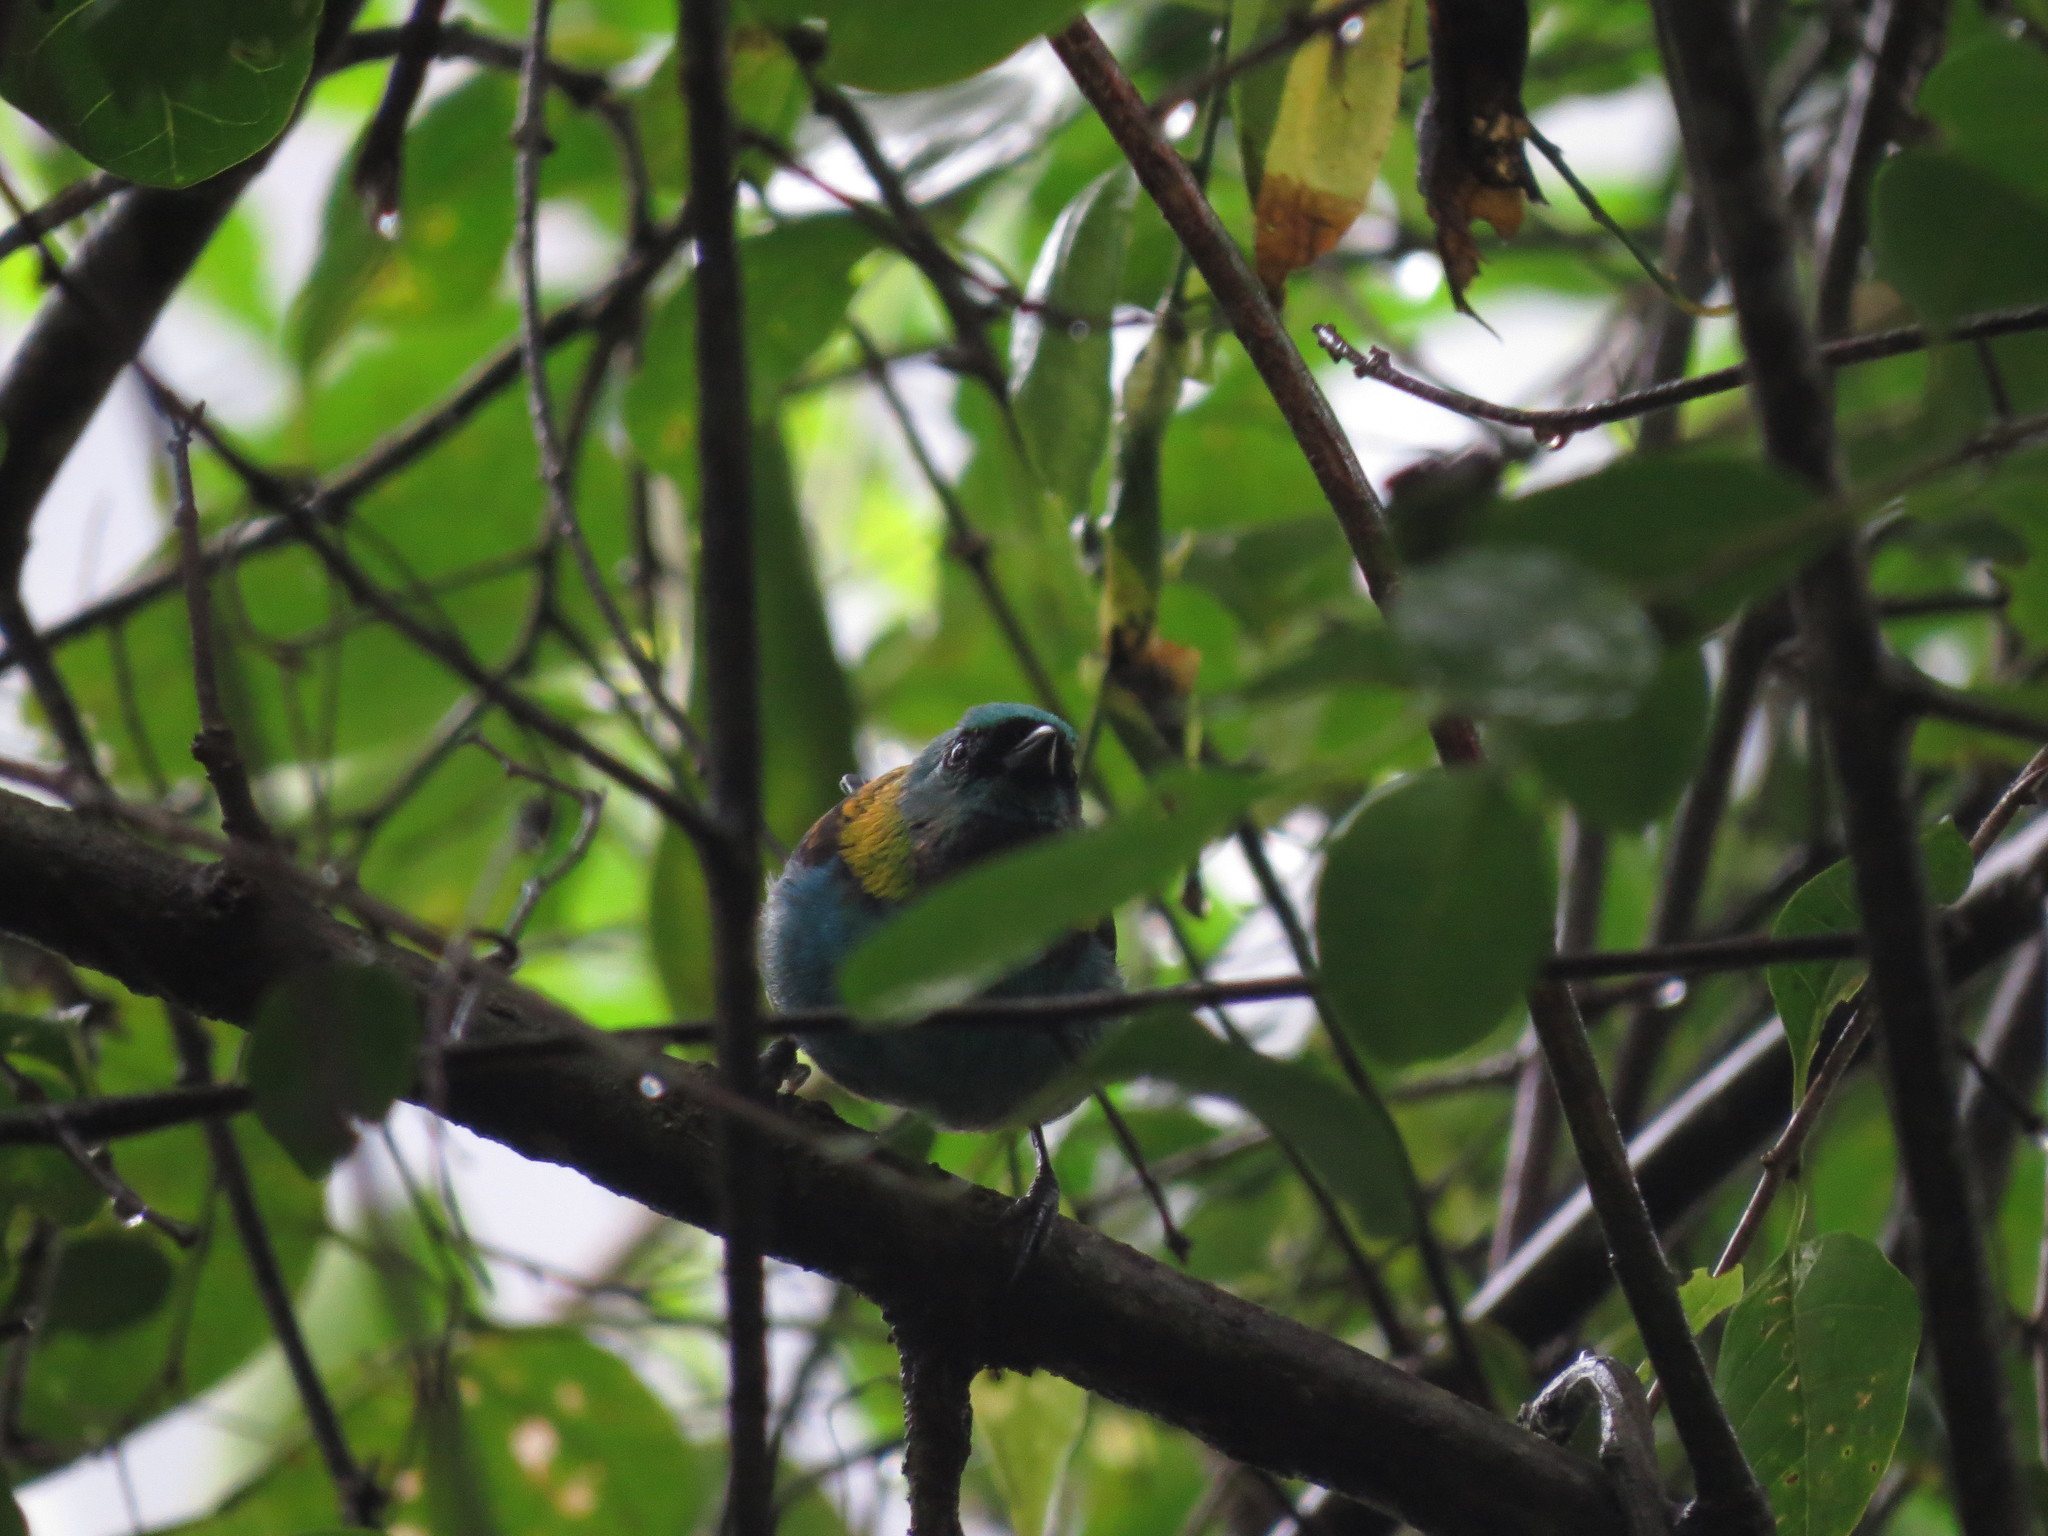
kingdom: Animalia
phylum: Chordata
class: Aves
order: Passeriformes
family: Thraupidae
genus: Tangara
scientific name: Tangara seledon
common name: Green-headed tanager
